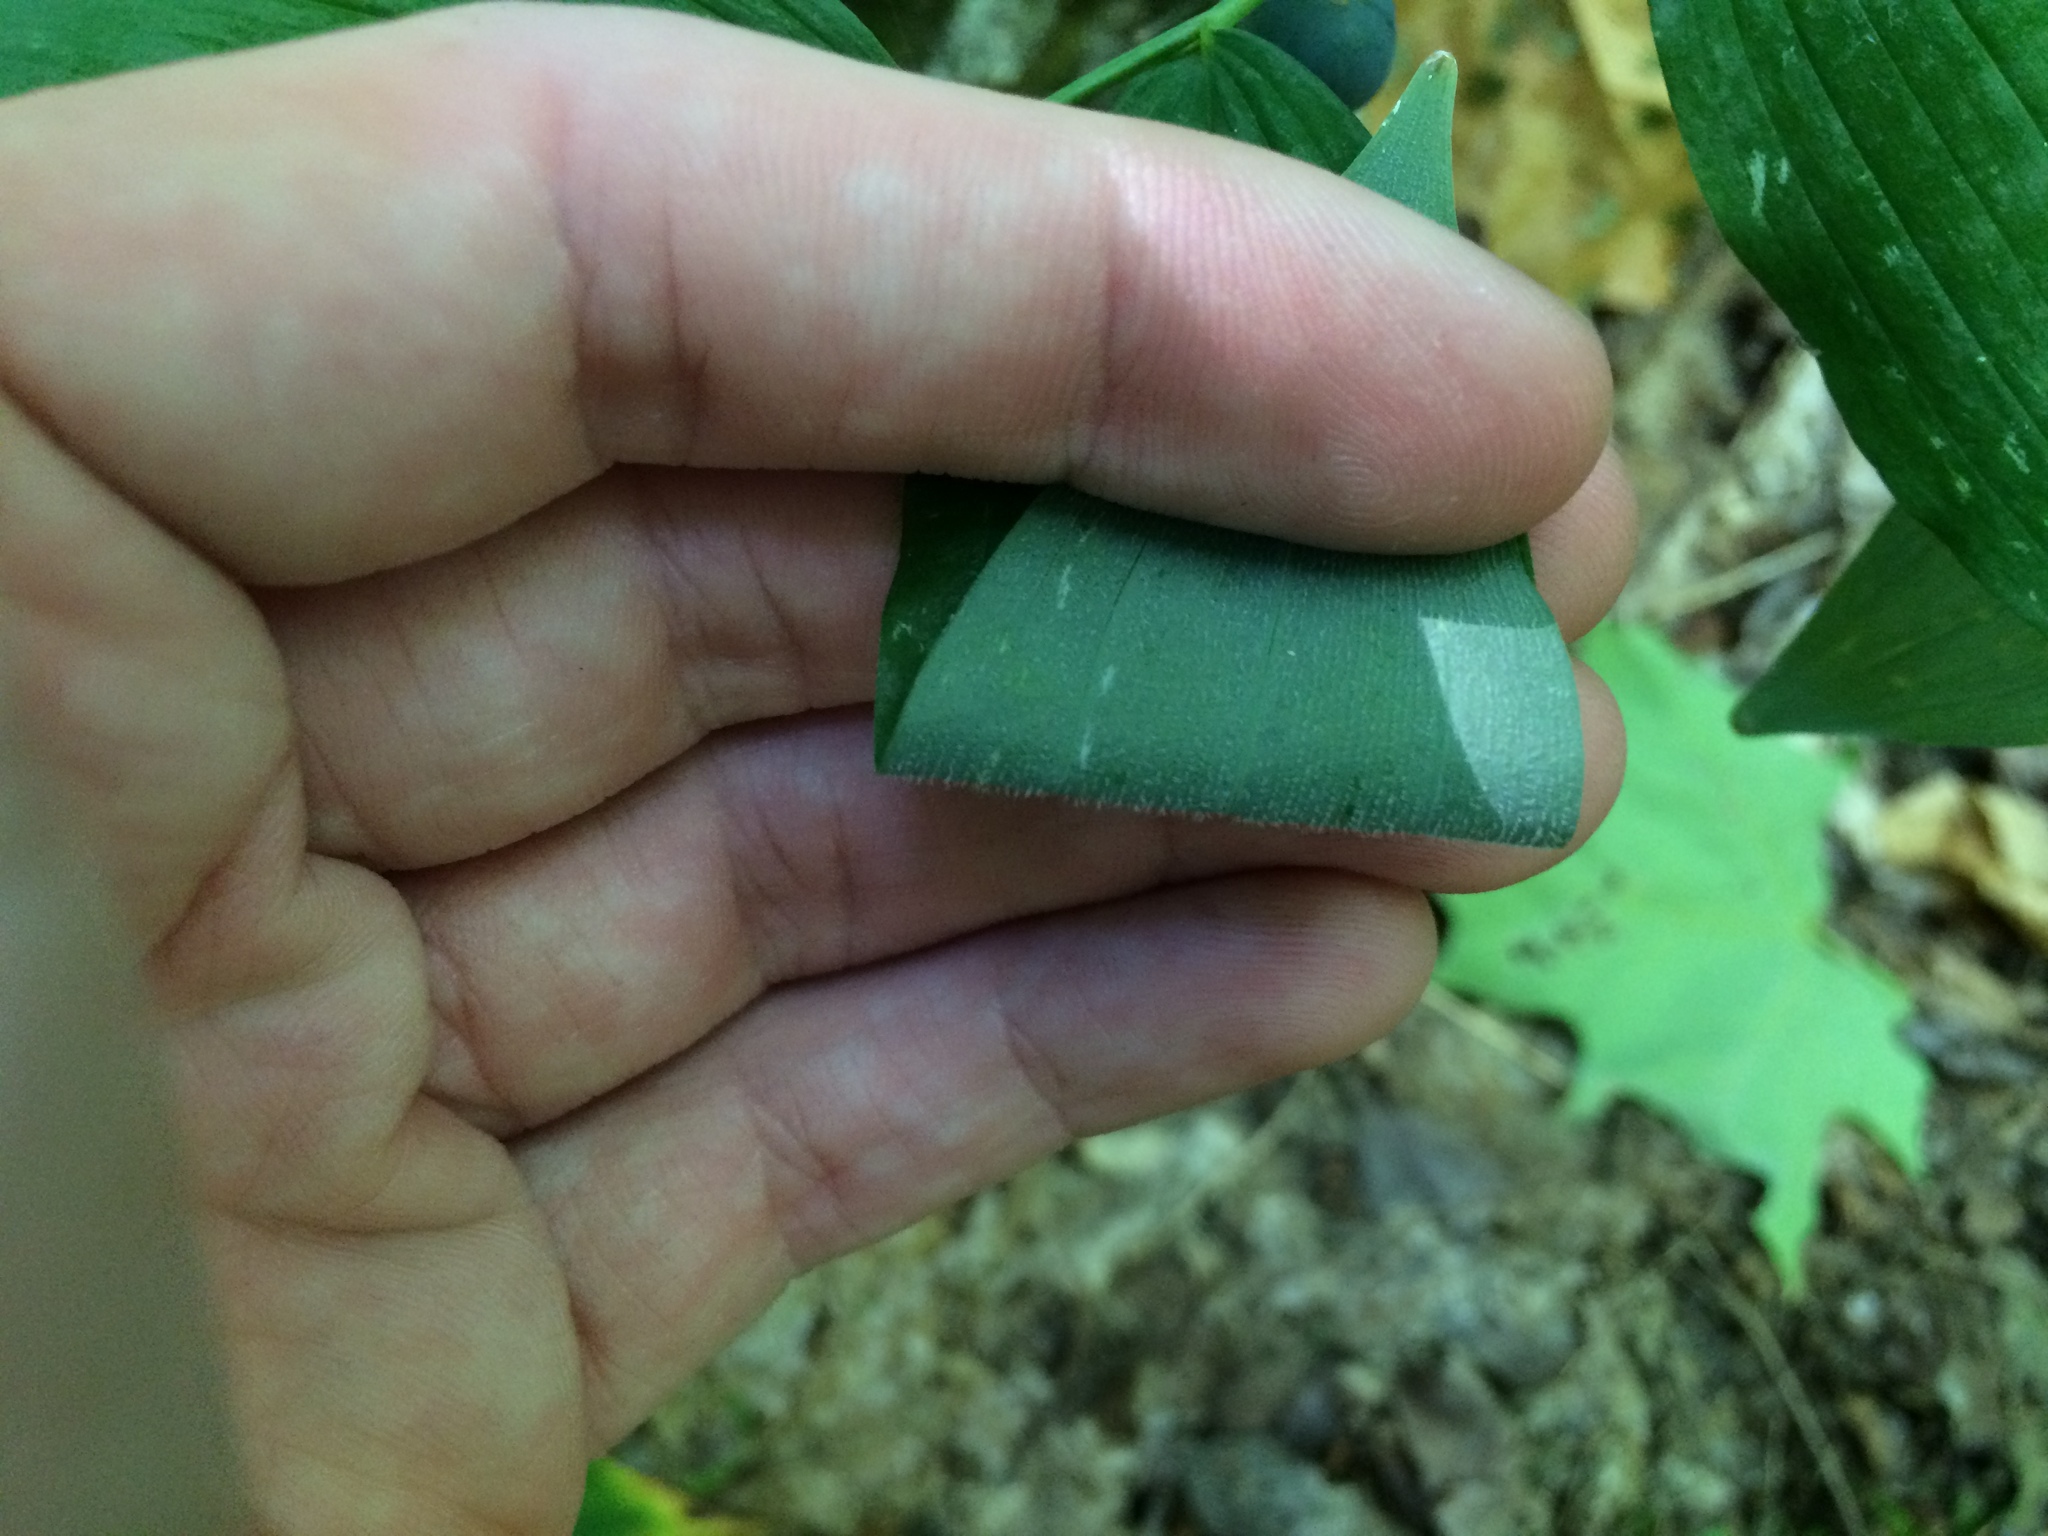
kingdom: Plantae
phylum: Tracheophyta
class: Liliopsida
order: Asparagales
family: Asparagaceae
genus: Polygonatum
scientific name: Polygonatum pubescens
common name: Downy solomon's seal
